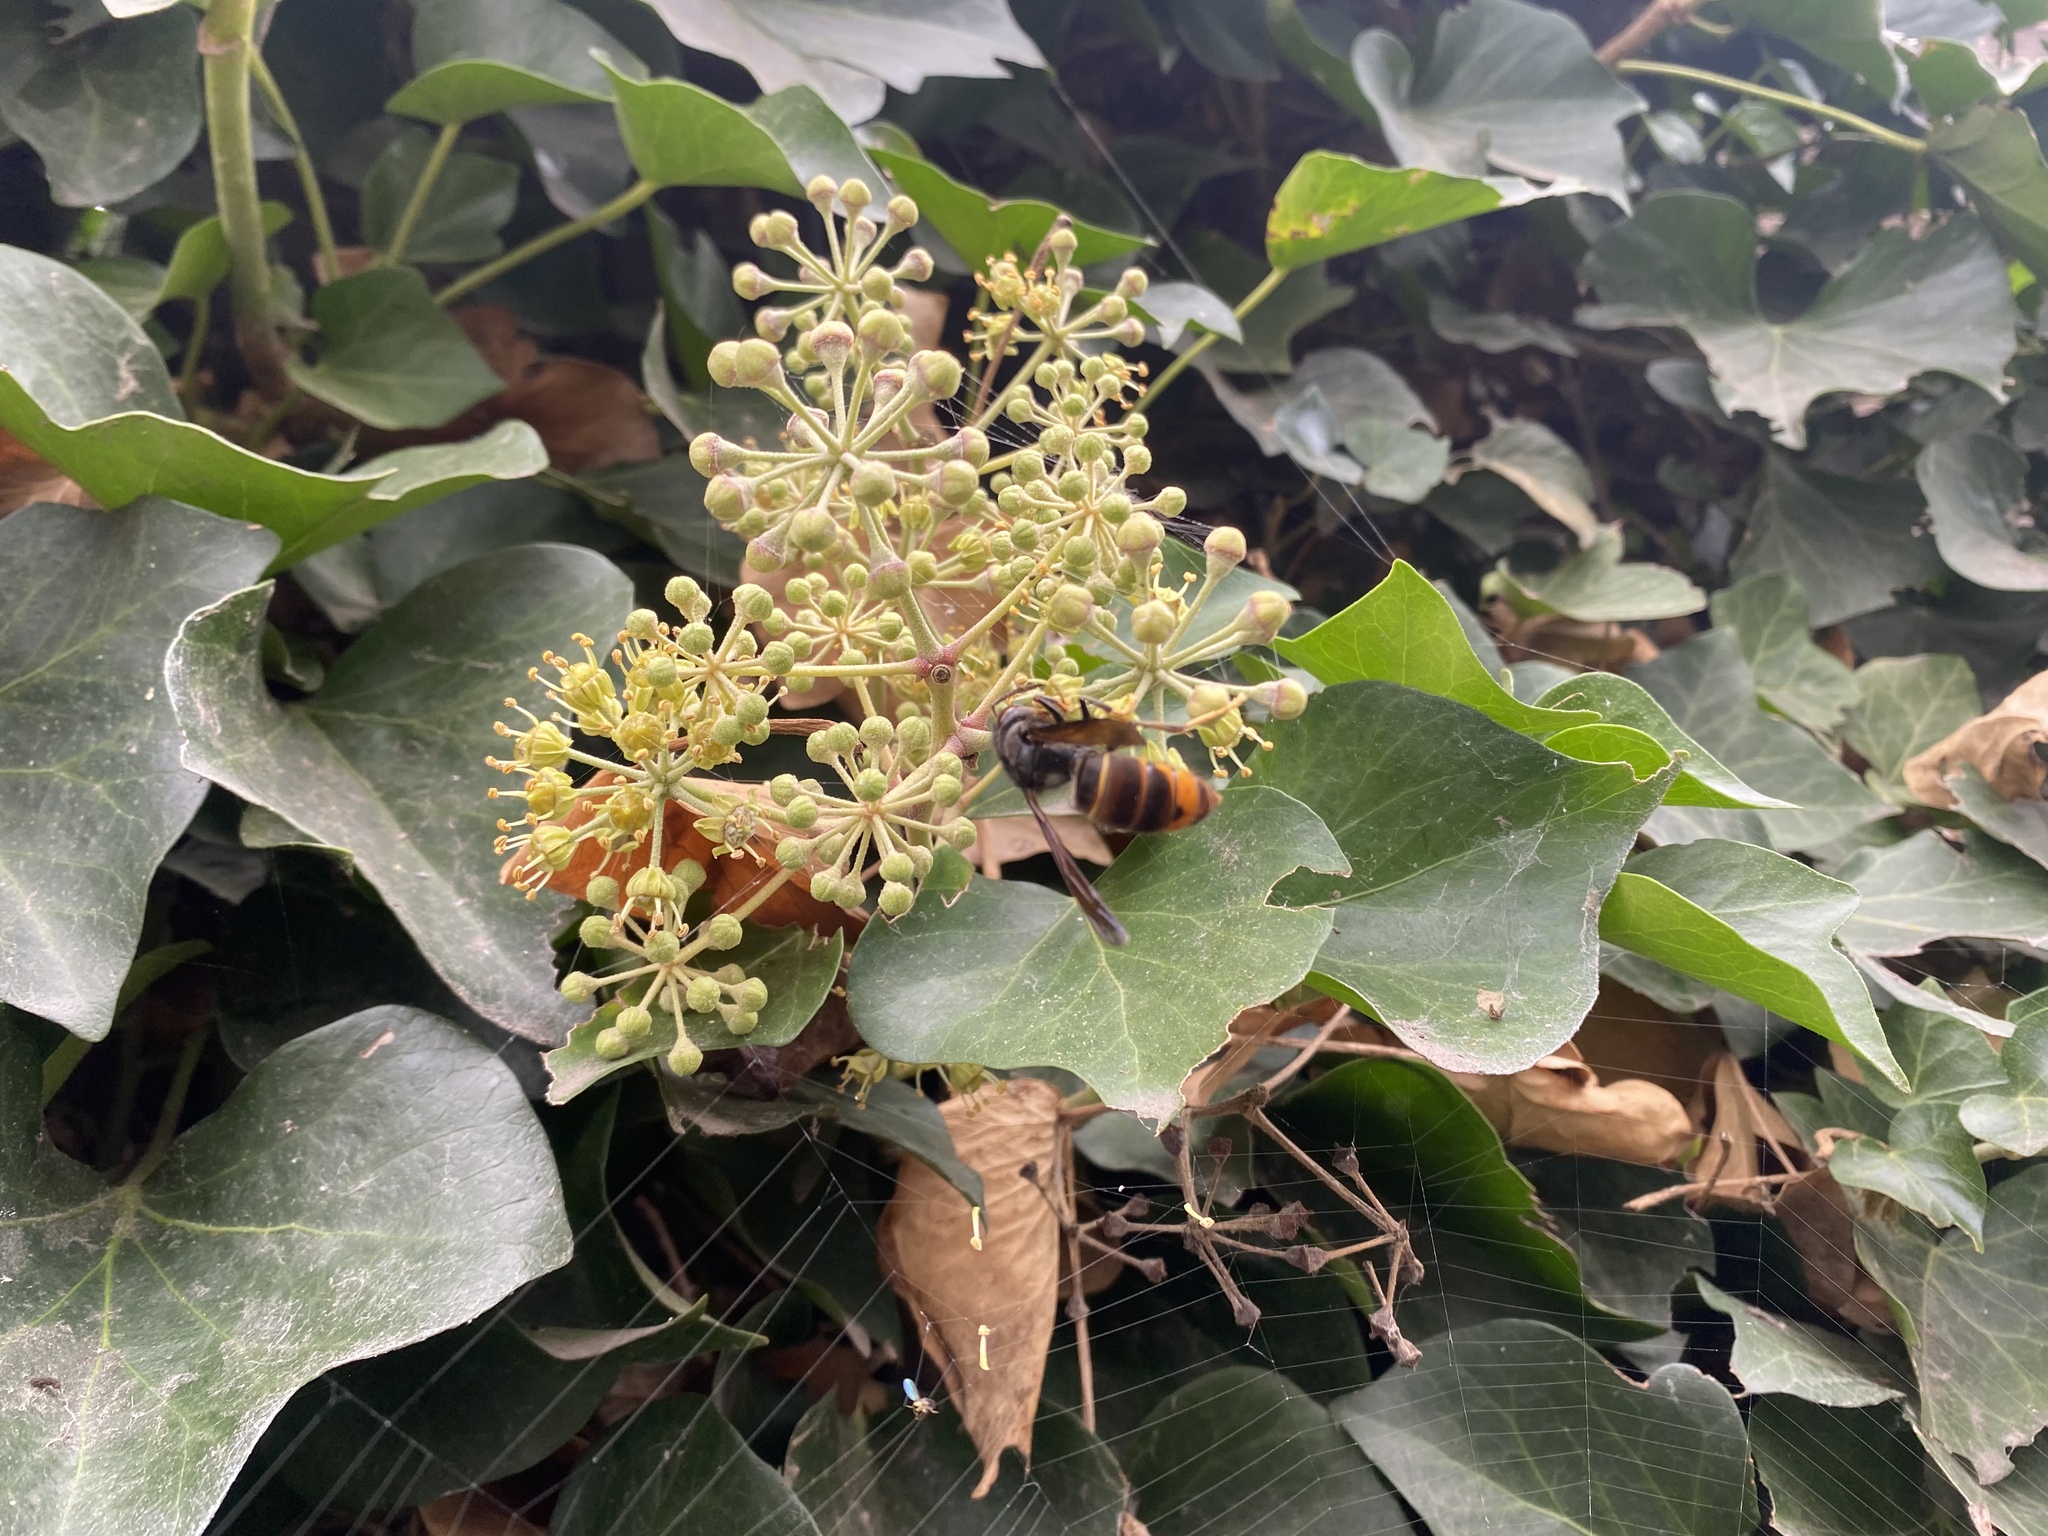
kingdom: Animalia
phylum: Arthropoda
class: Insecta
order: Hymenoptera
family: Vespidae
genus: Vespa
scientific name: Vespa velutina
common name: Asian hornet
